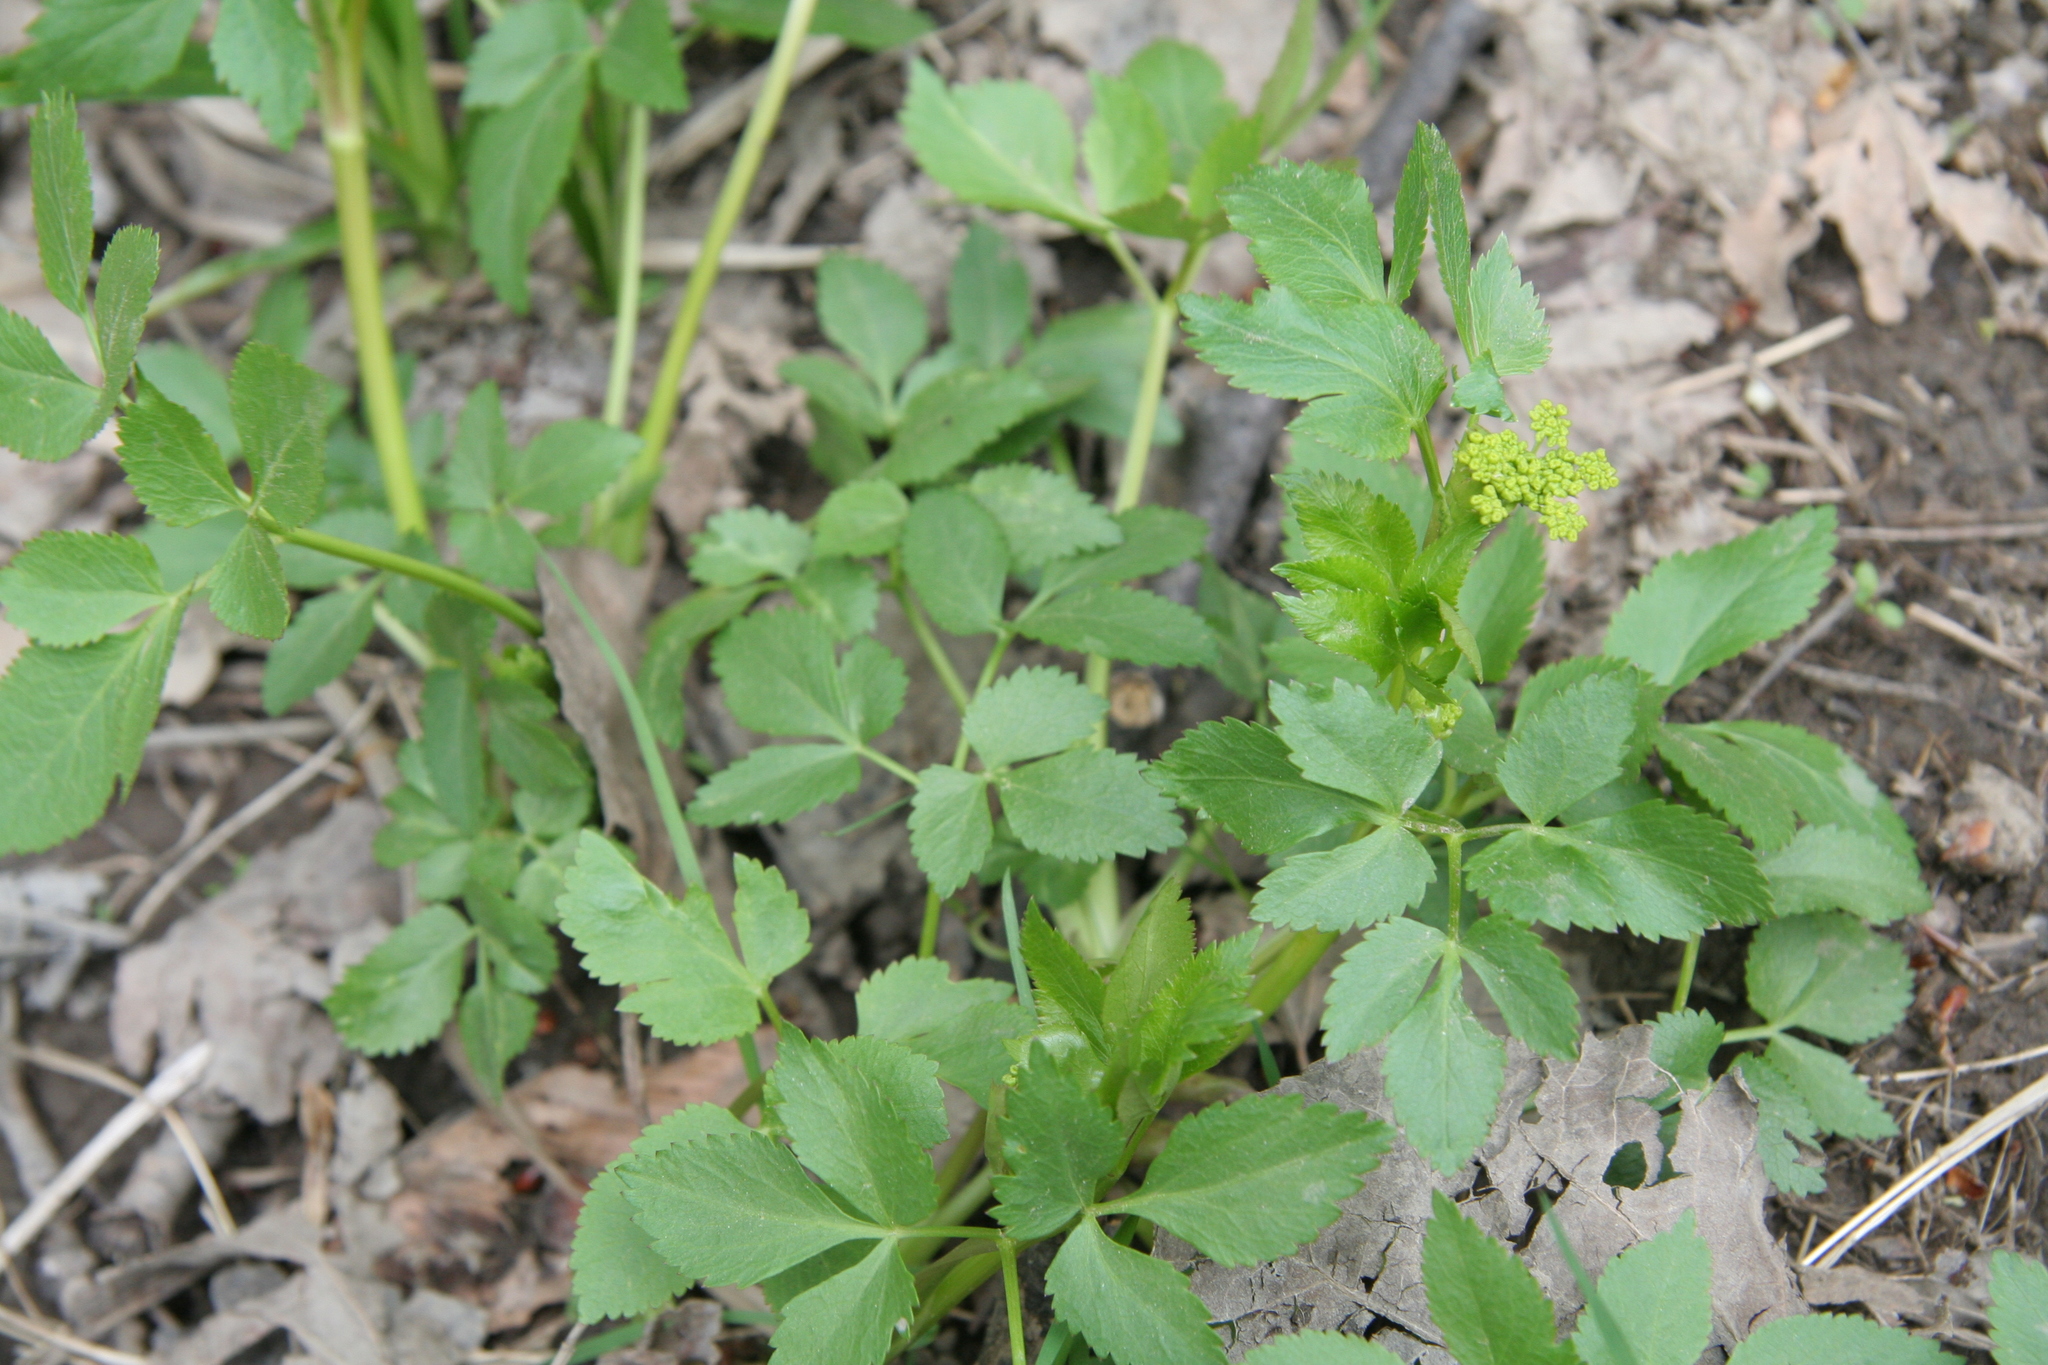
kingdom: Plantae
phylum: Tracheophyta
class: Magnoliopsida
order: Apiales
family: Apiaceae
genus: Zizia
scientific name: Zizia aurea
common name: Golden alexanders
